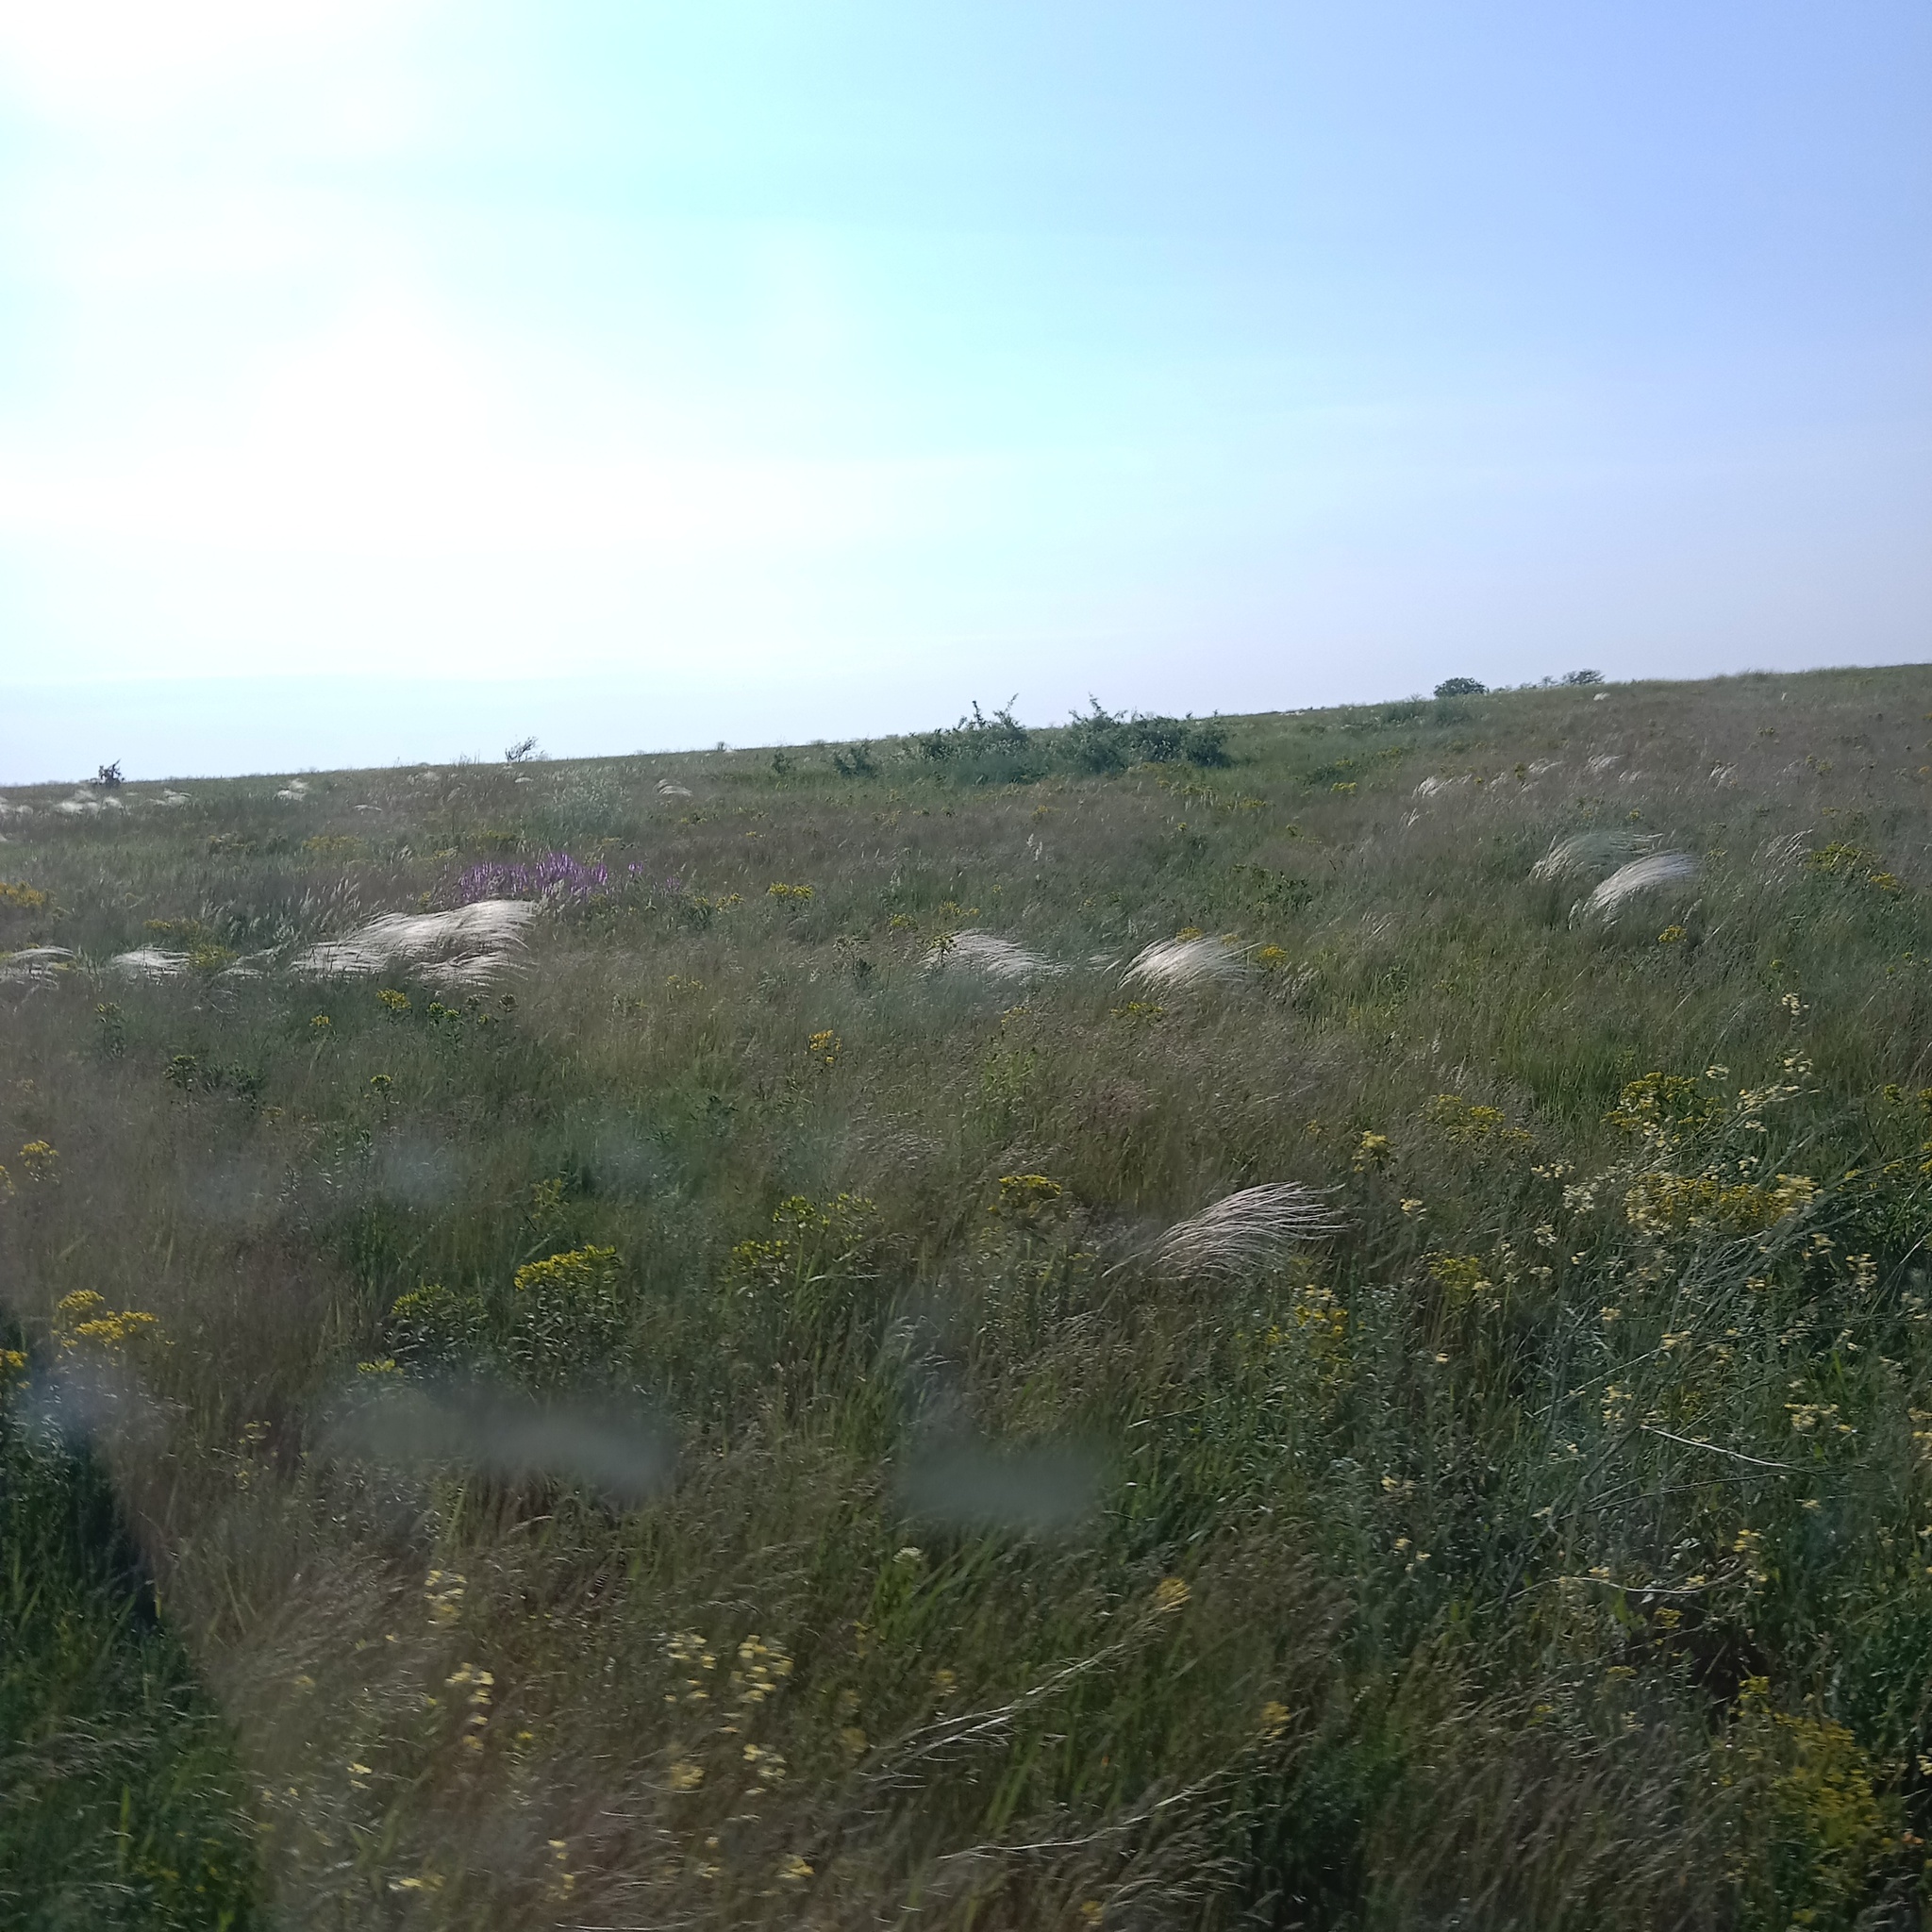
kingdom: Plantae
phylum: Tracheophyta
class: Liliopsida
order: Poales
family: Poaceae
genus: Stipa
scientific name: Stipa lessingiana
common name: Needle grass
